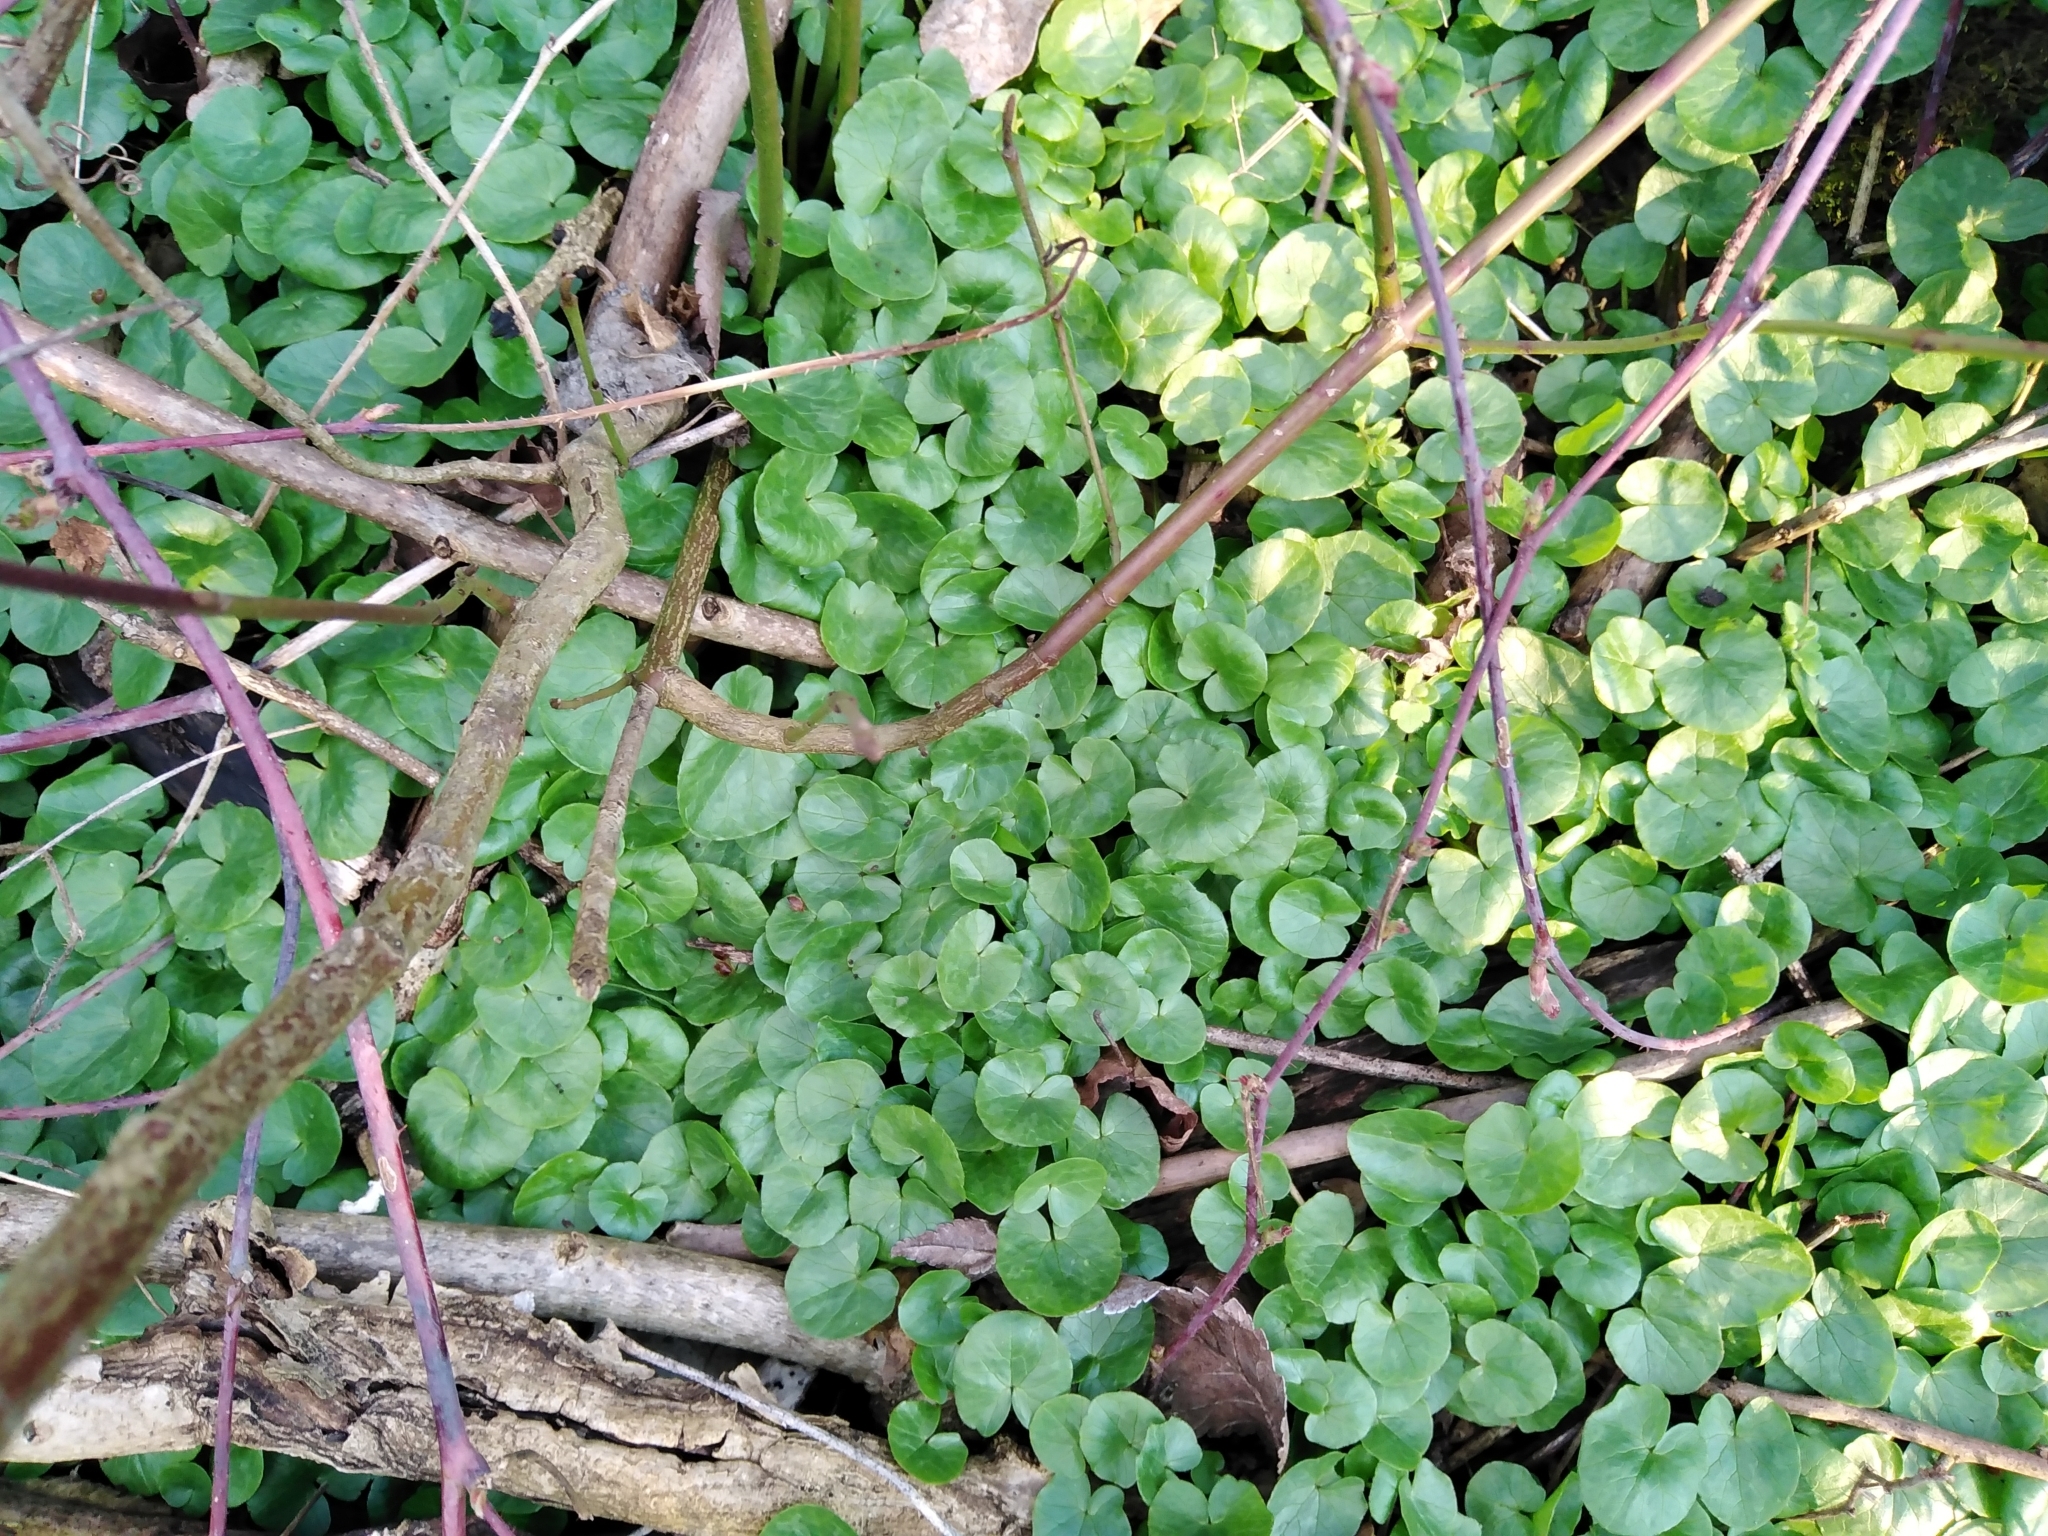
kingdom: Plantae
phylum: Tracheophyta
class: Magnoliopsida
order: Ranunculales
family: Ranunculaceae
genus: Ficaria
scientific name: Ficaria verna
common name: Lesser celandine
